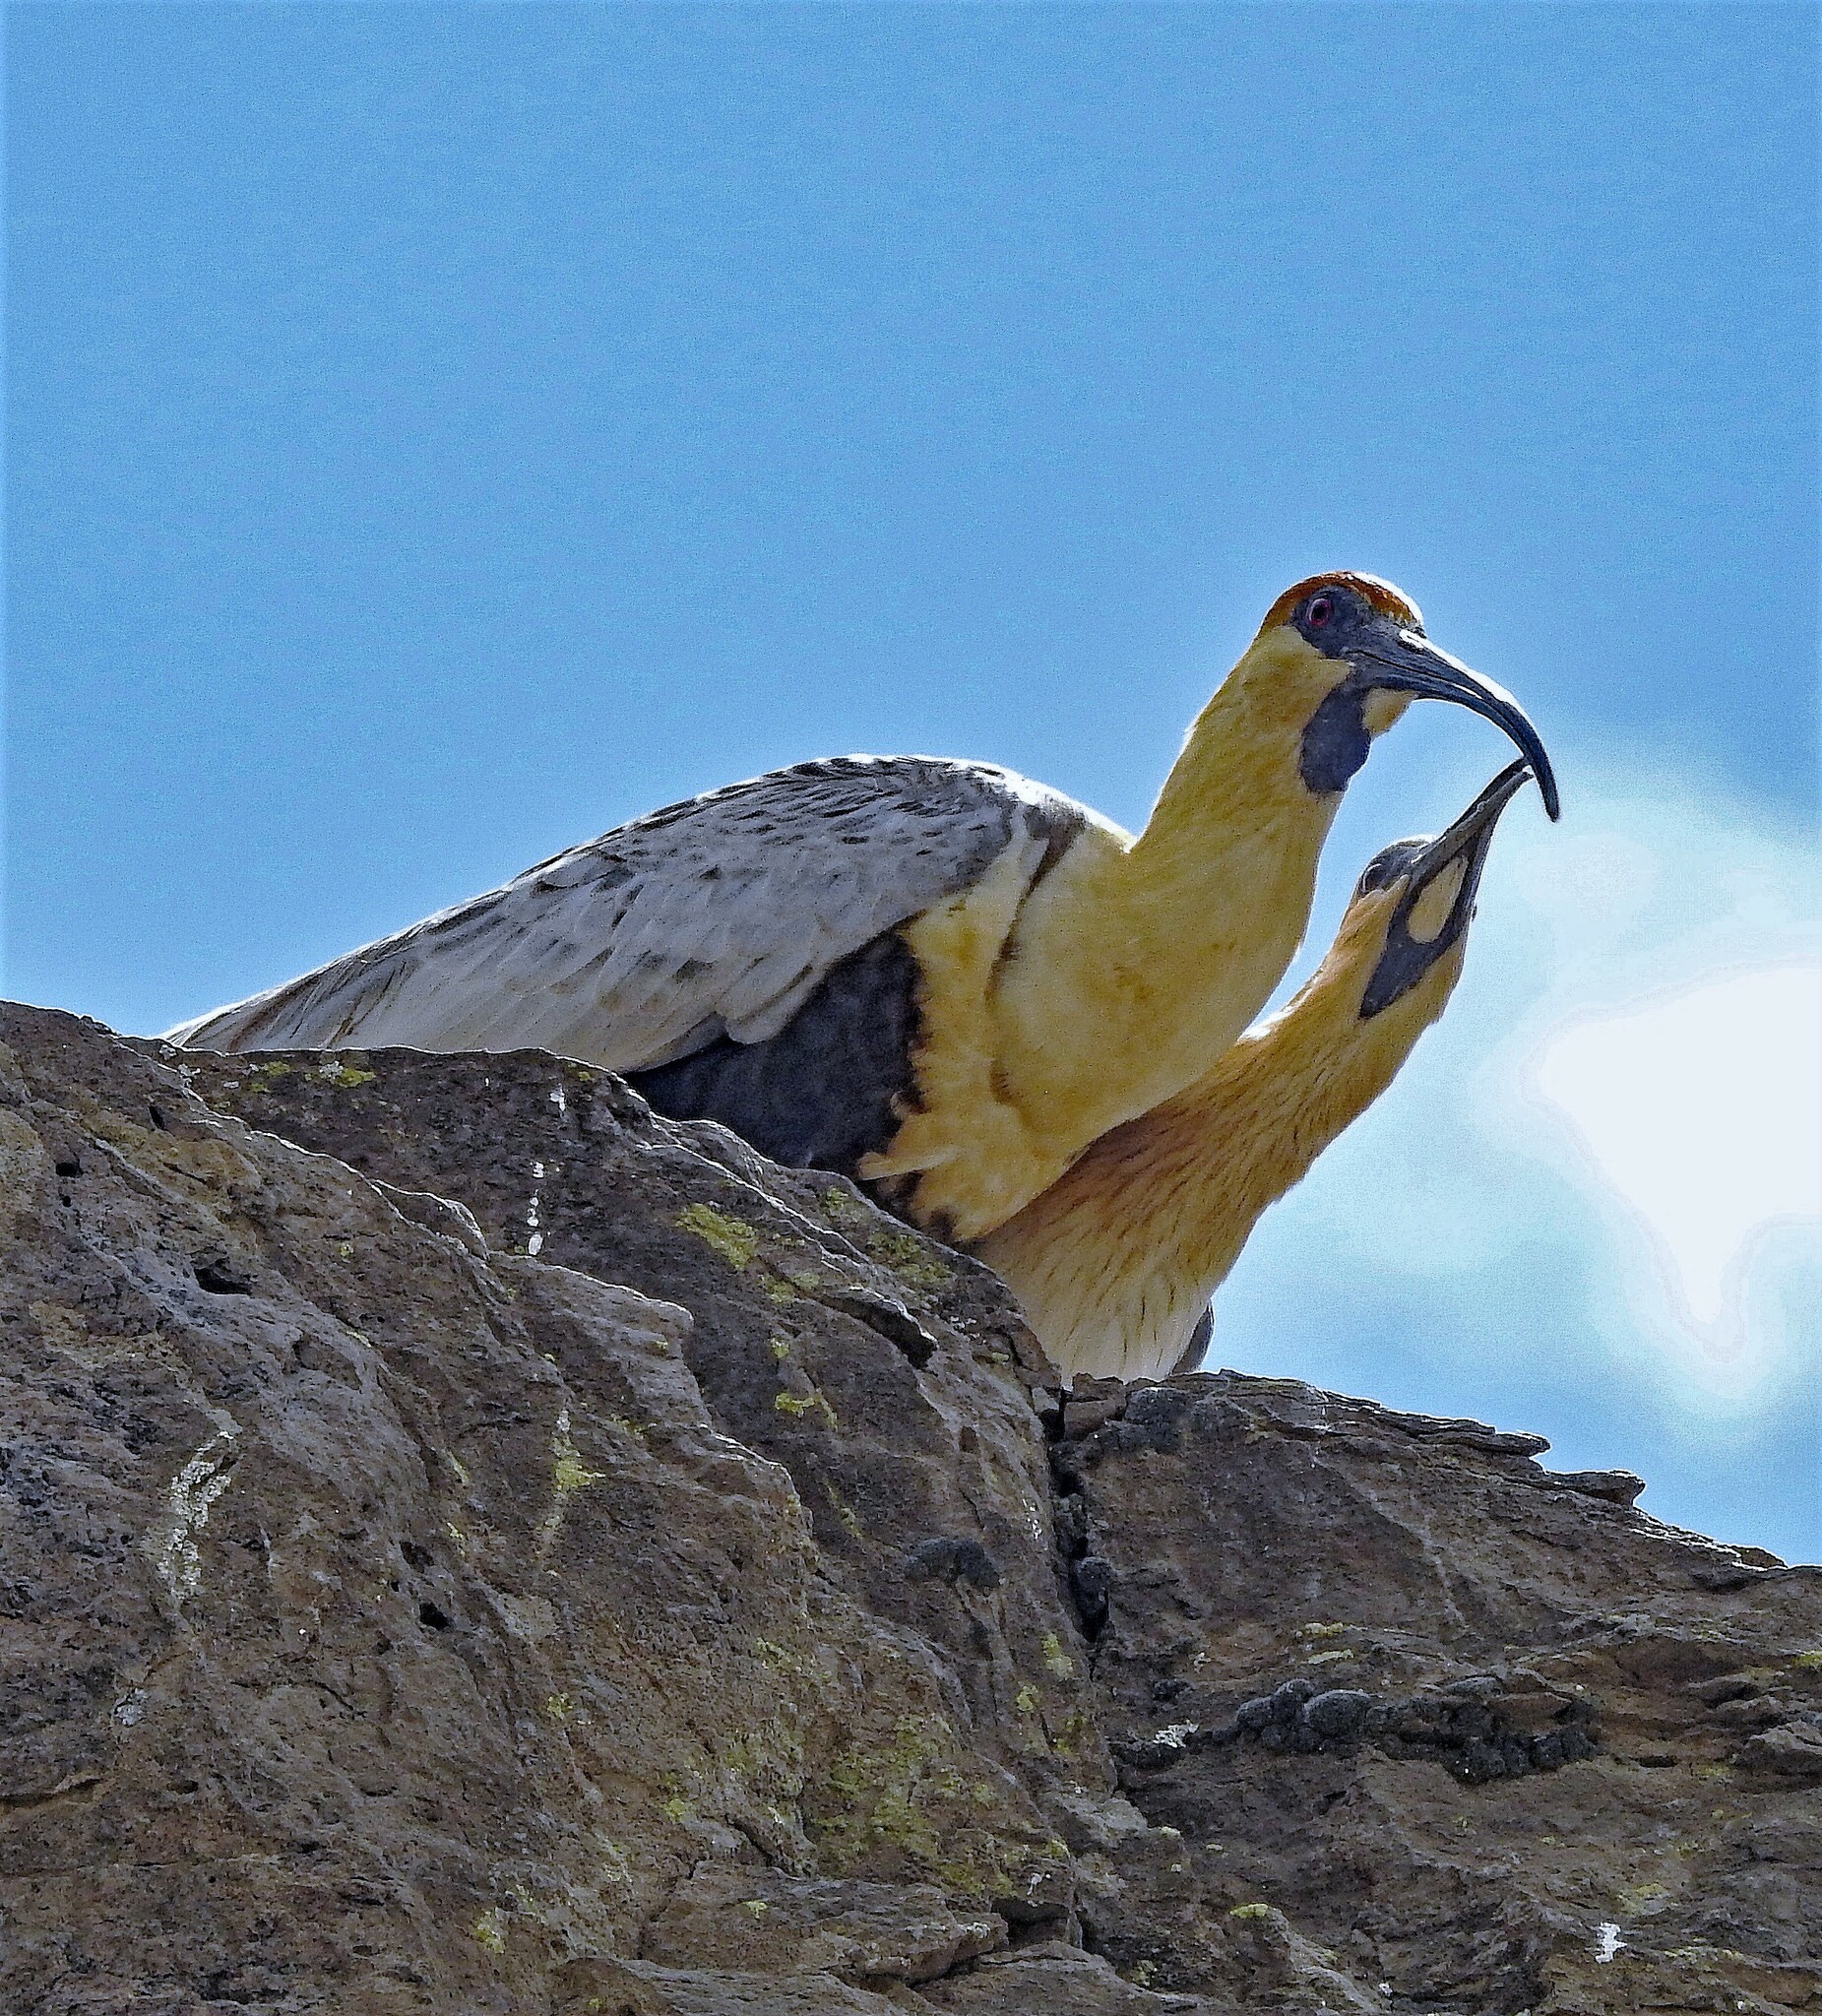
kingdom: Animalia
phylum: Chordata
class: Aves
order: Pelecaniformes
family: Threskiornithidae
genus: Theristicus
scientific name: Theristicus melanopis
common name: Black-faced ibis
